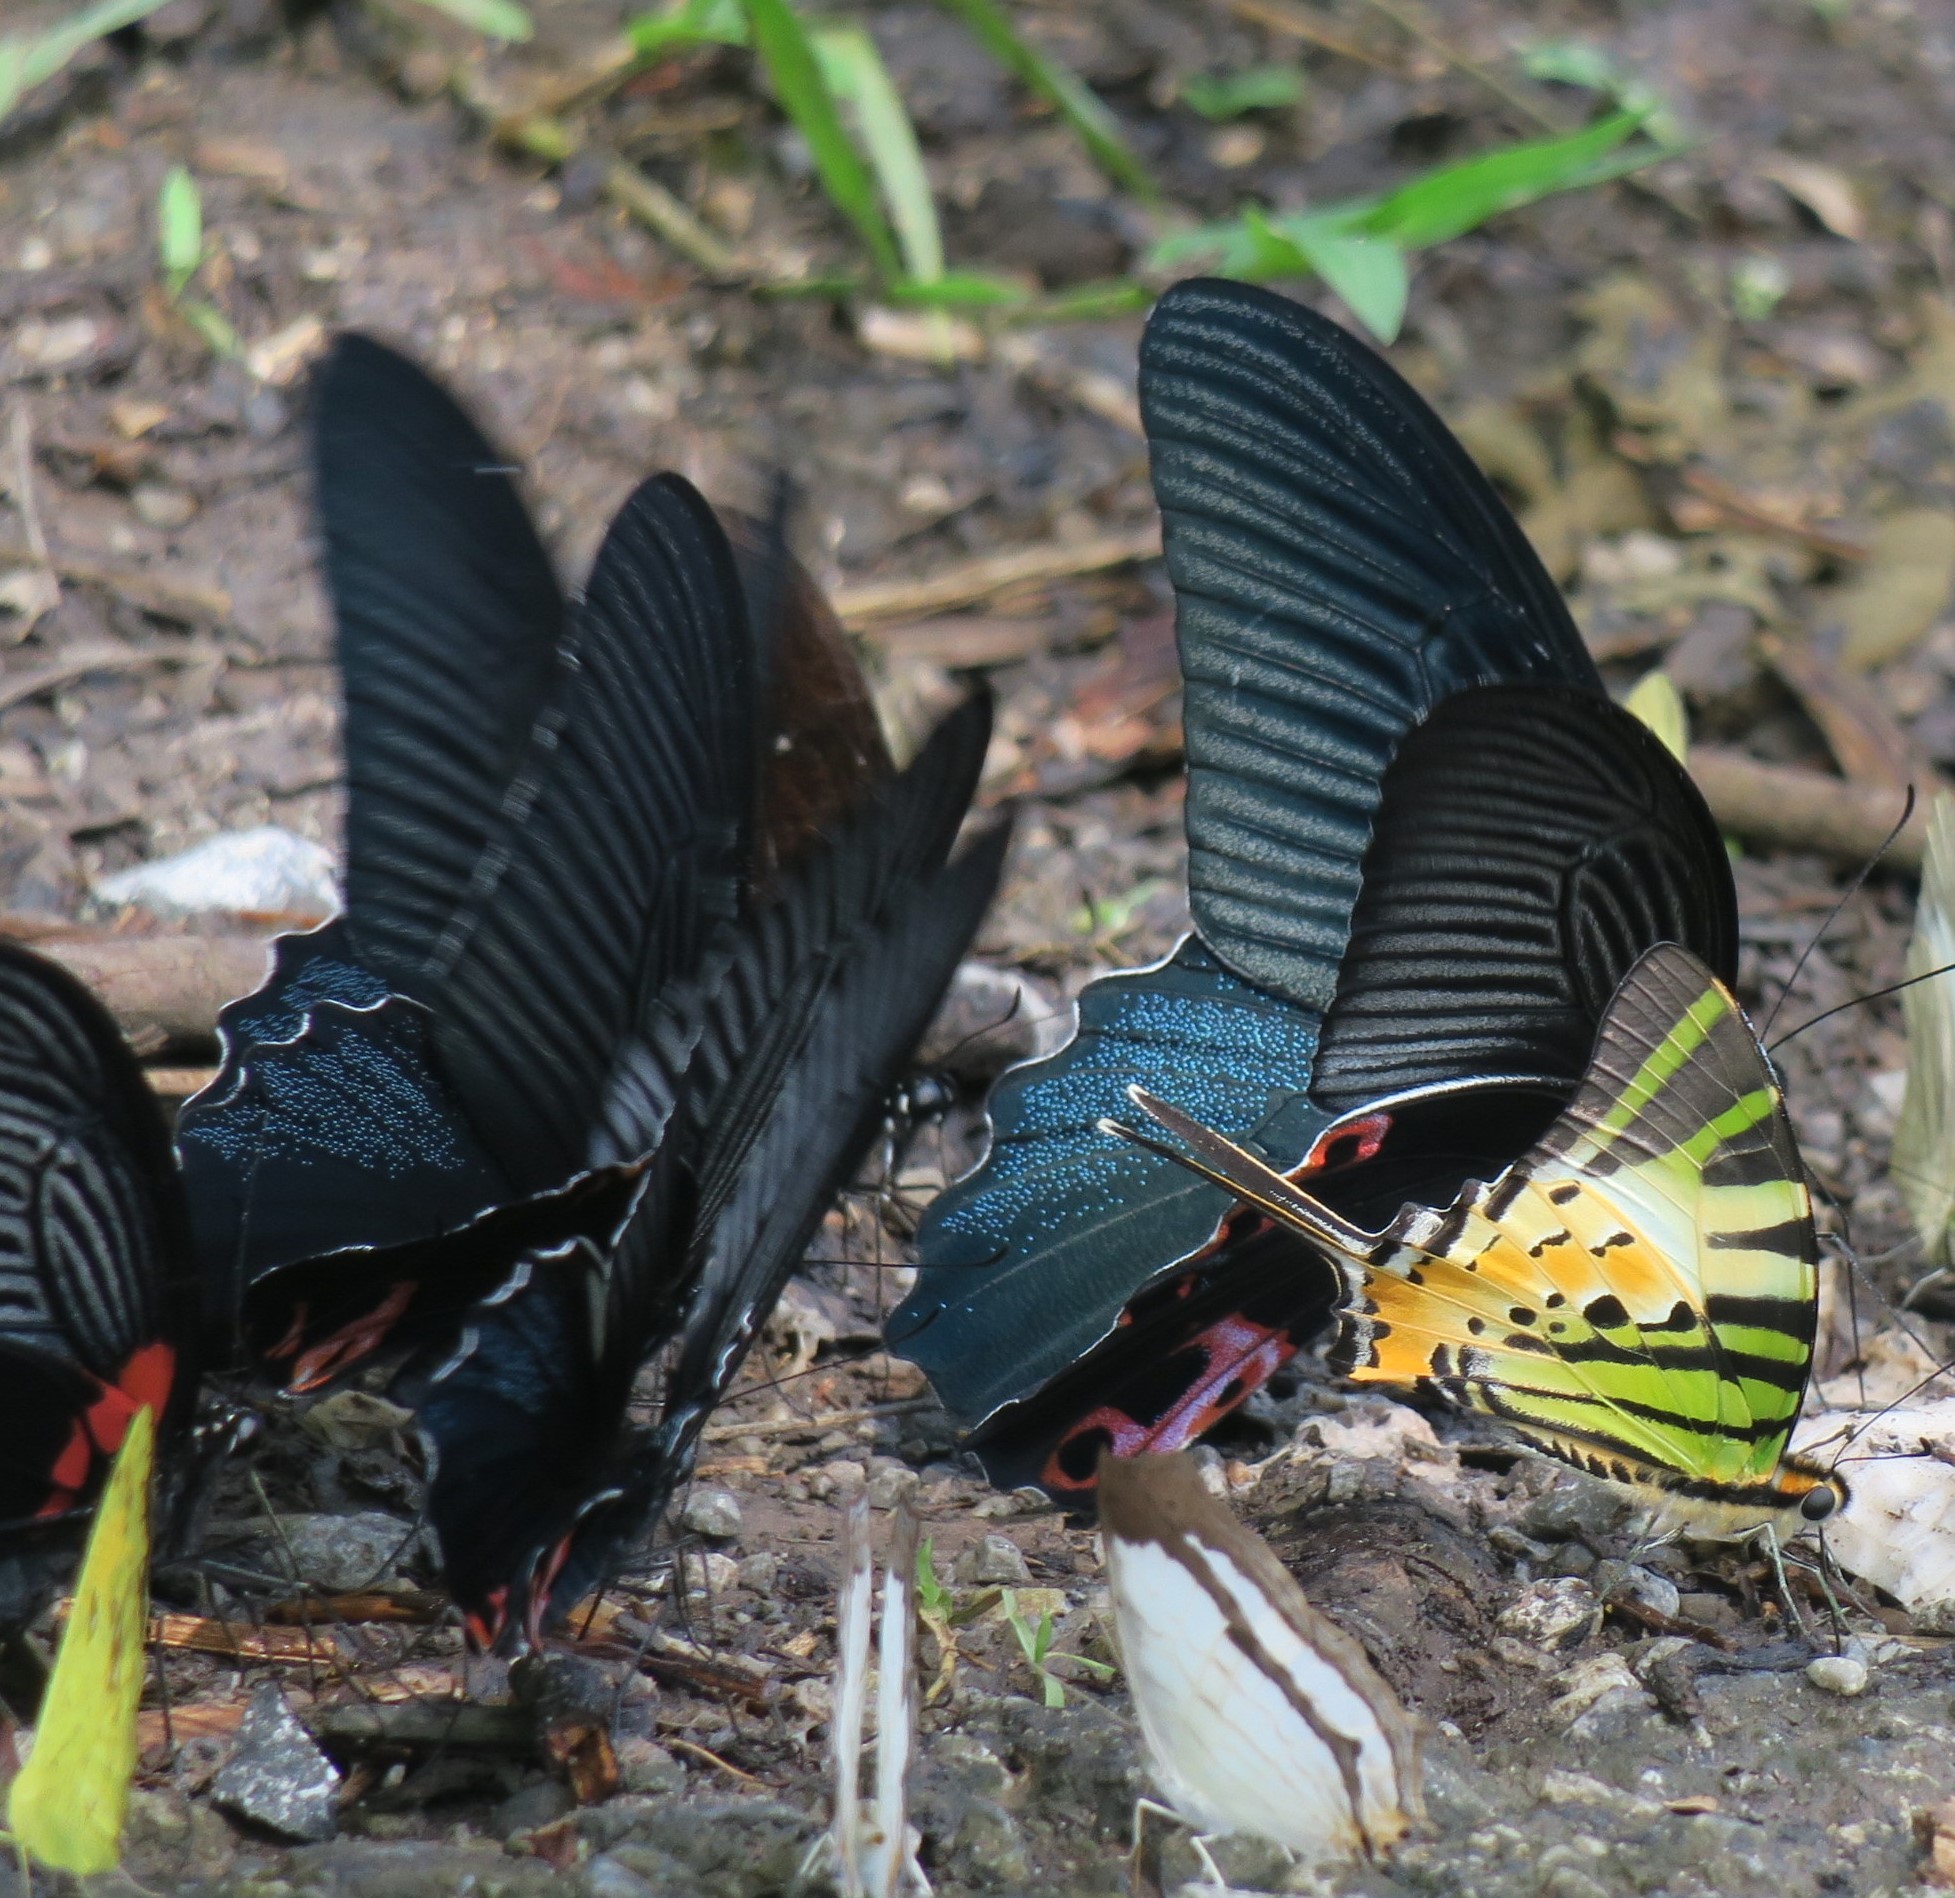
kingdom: Animalia
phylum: Arthropoda
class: Insecta
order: Lepidoptera
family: Papilionidae
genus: Papilio
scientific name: Papilio protenor
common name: Spangle
